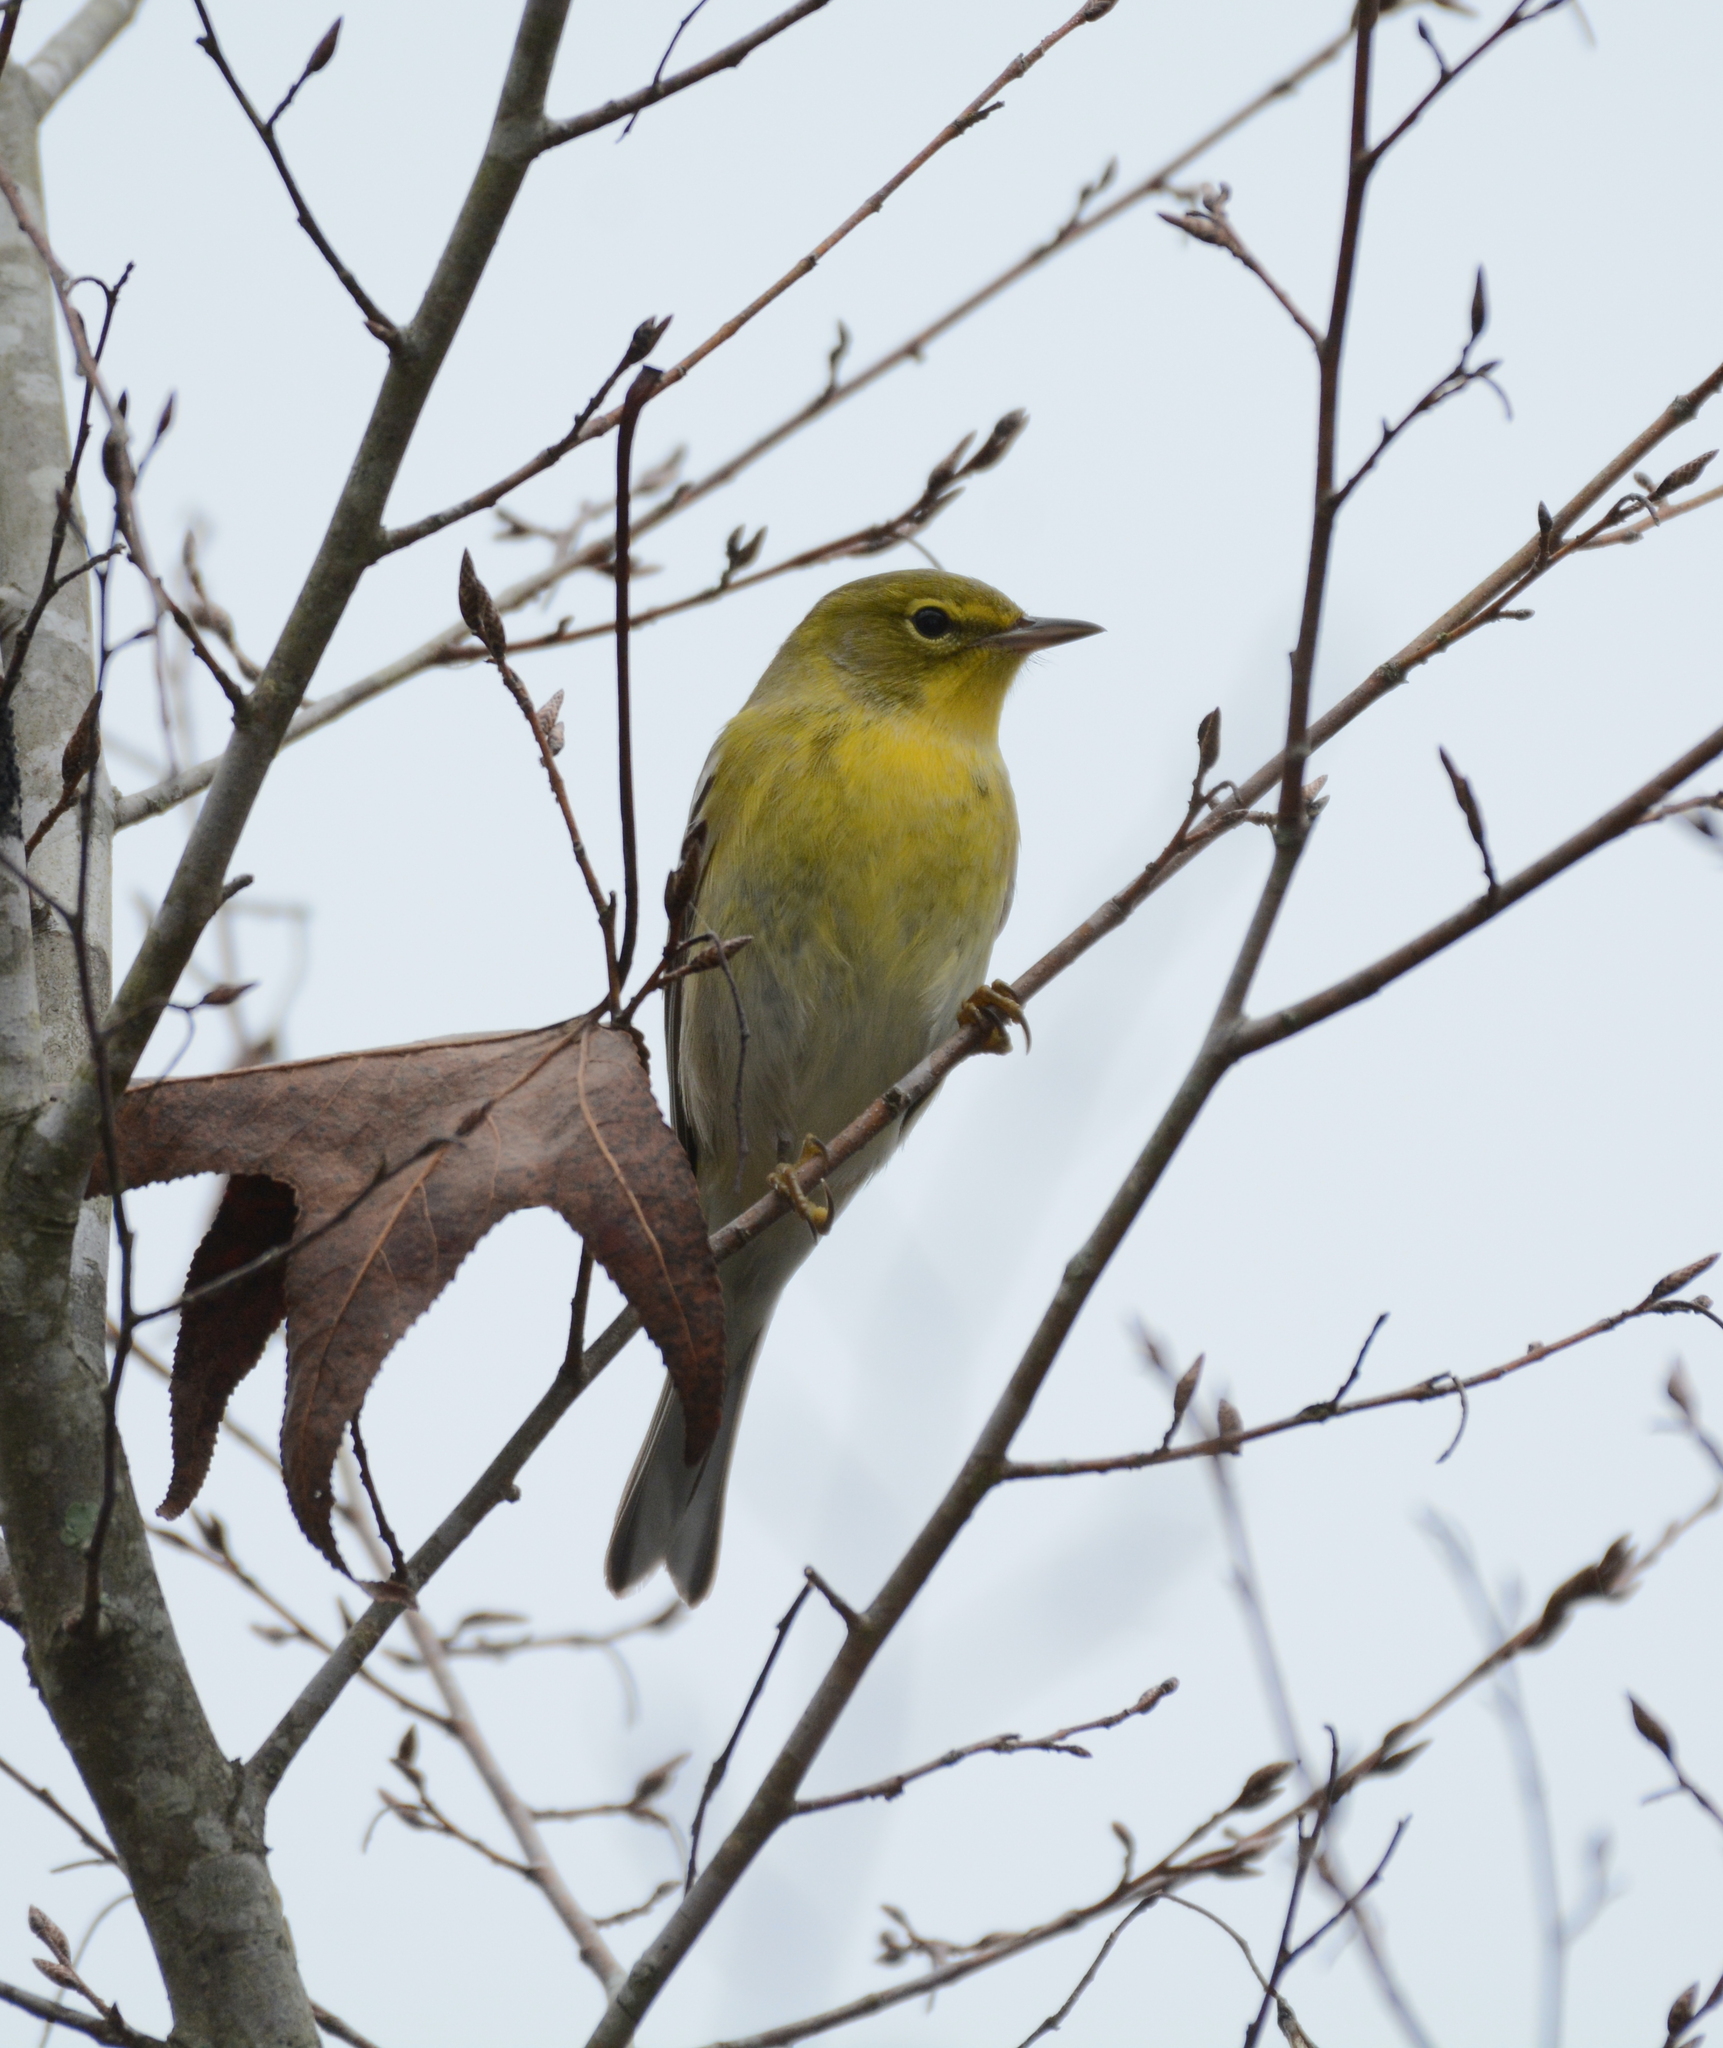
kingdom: Animalia
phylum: Chordata
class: Aves
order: Passeriformes
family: Parulidae
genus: Setophaga
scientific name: Setophaga pinus
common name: Pine warbler
